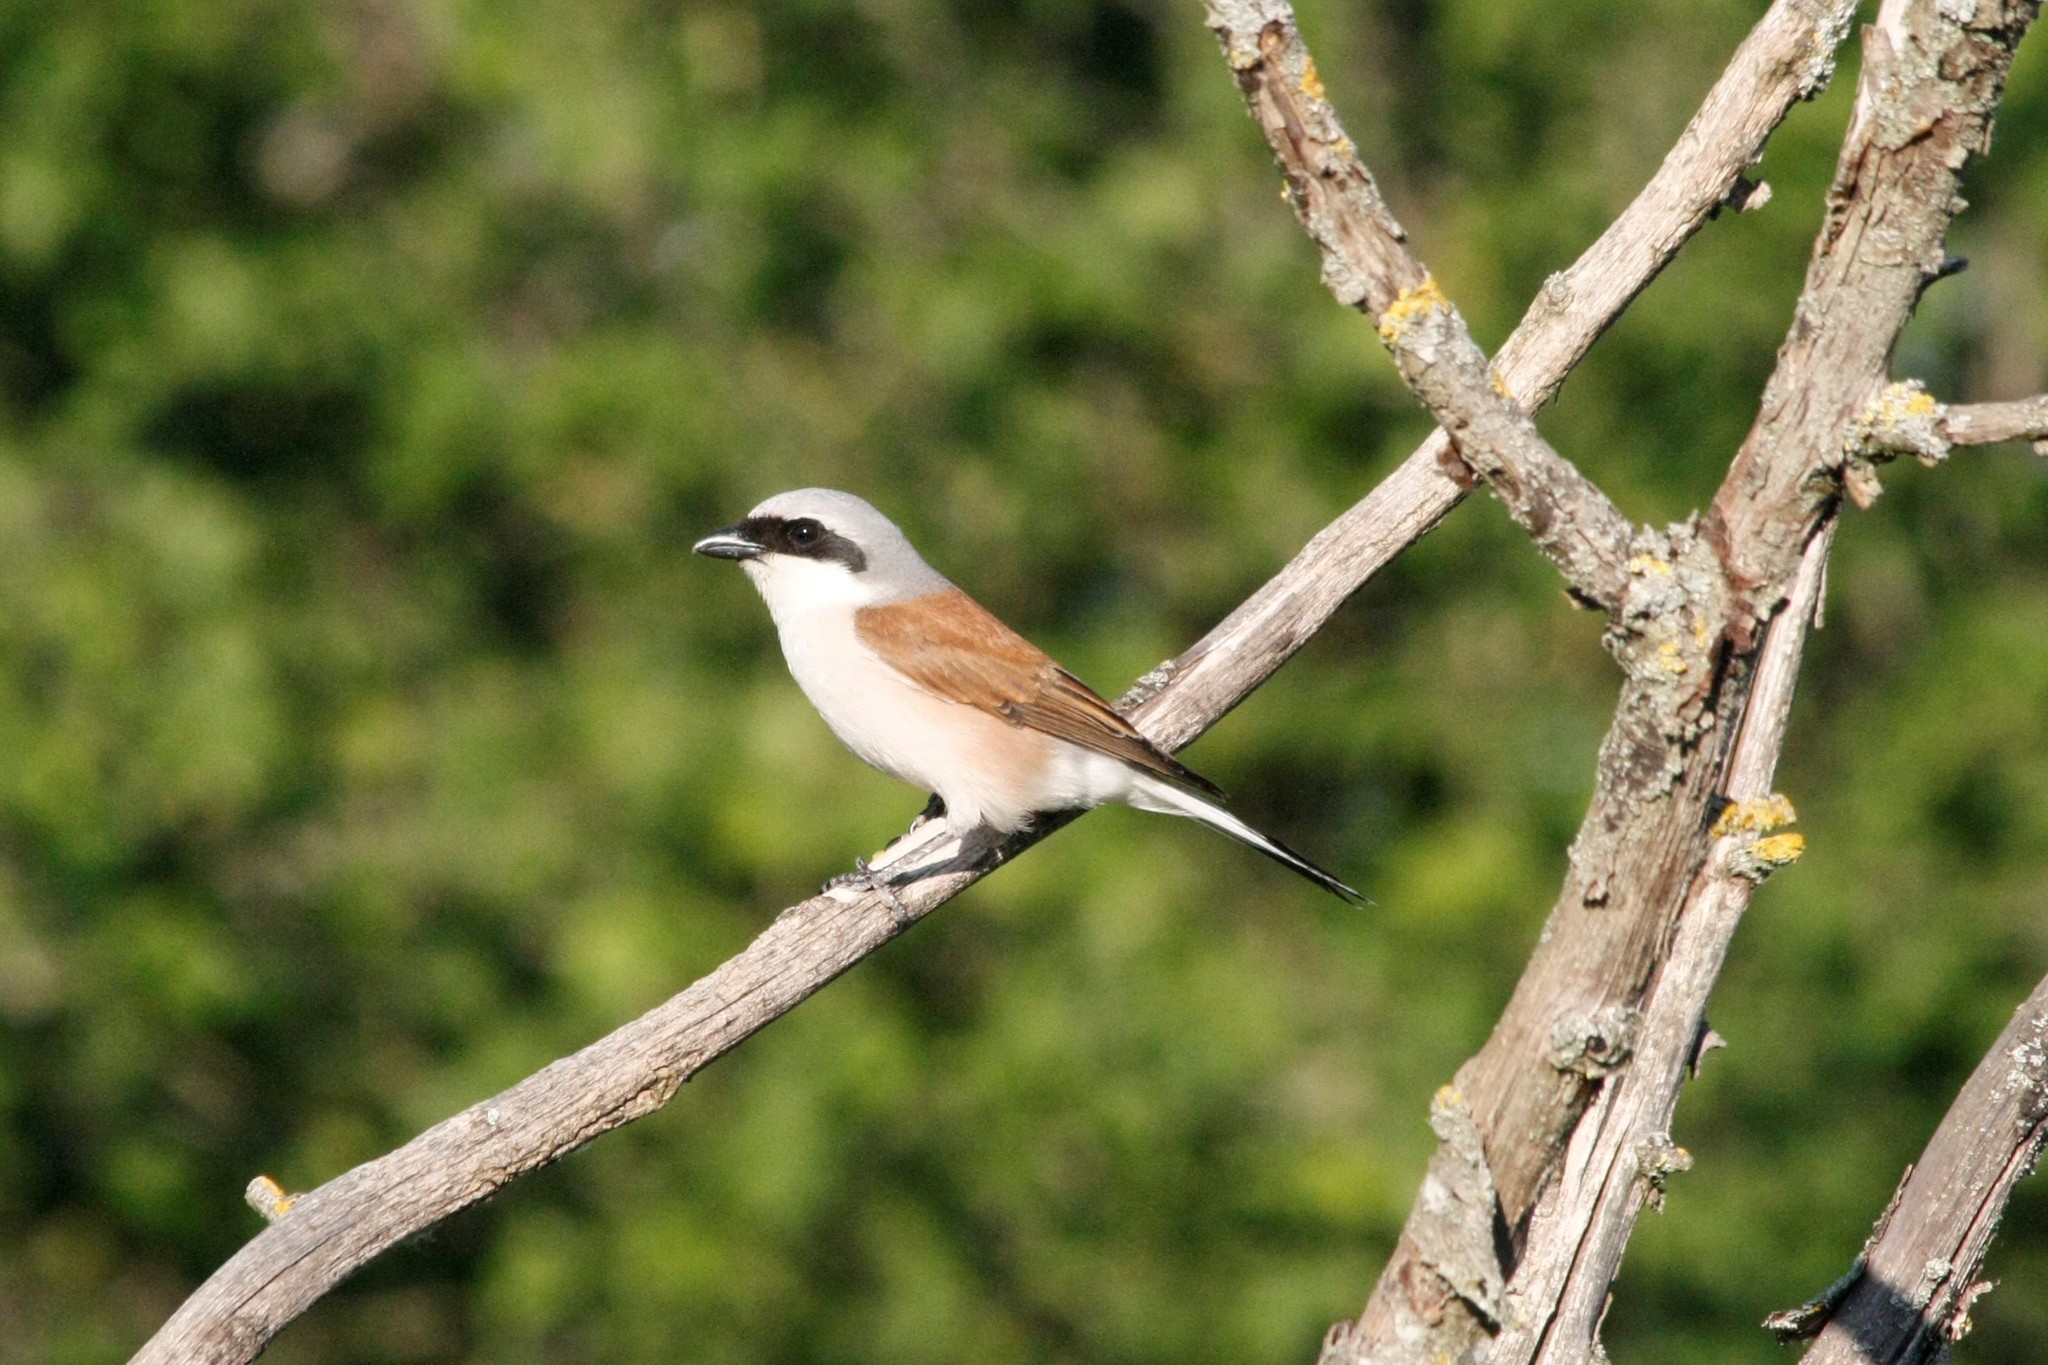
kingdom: Animalia
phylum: Chordata
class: Aves
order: Passeriformes
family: Laniidae
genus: Lanius
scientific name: Lanius collurio
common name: Red-backed shrike
